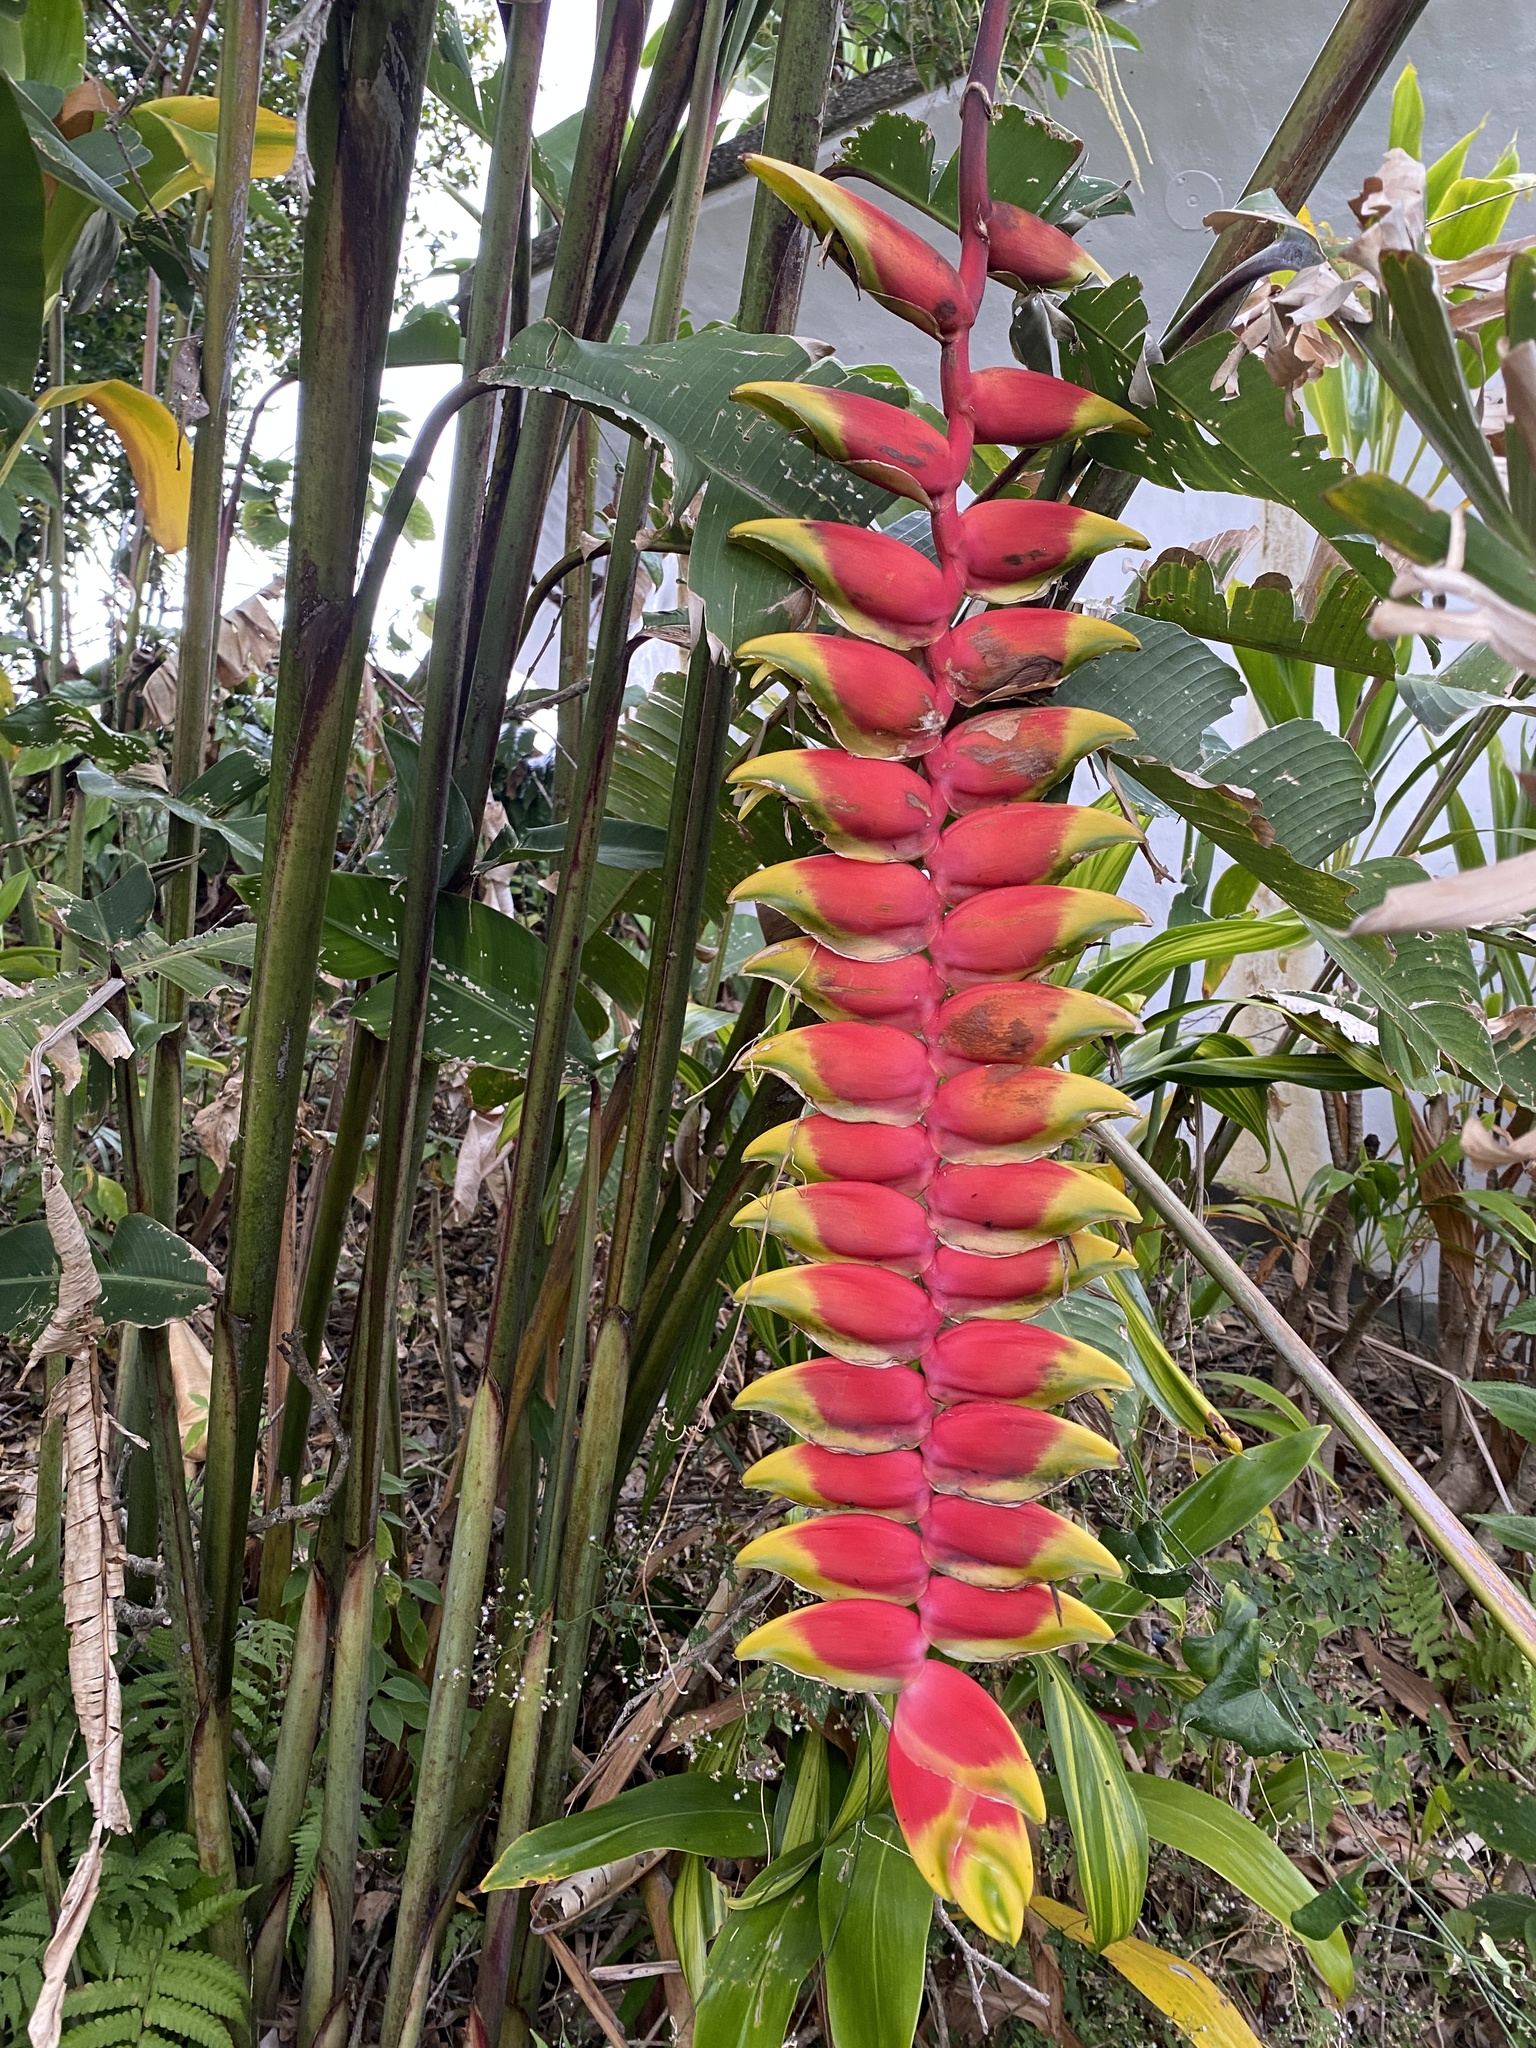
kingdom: Plantae
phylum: Tracheophyta
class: Liliopsida
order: Zingiberales
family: Heliconiaceae
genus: Heliconia
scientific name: Heliconia rostrata
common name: False bird of paradise
